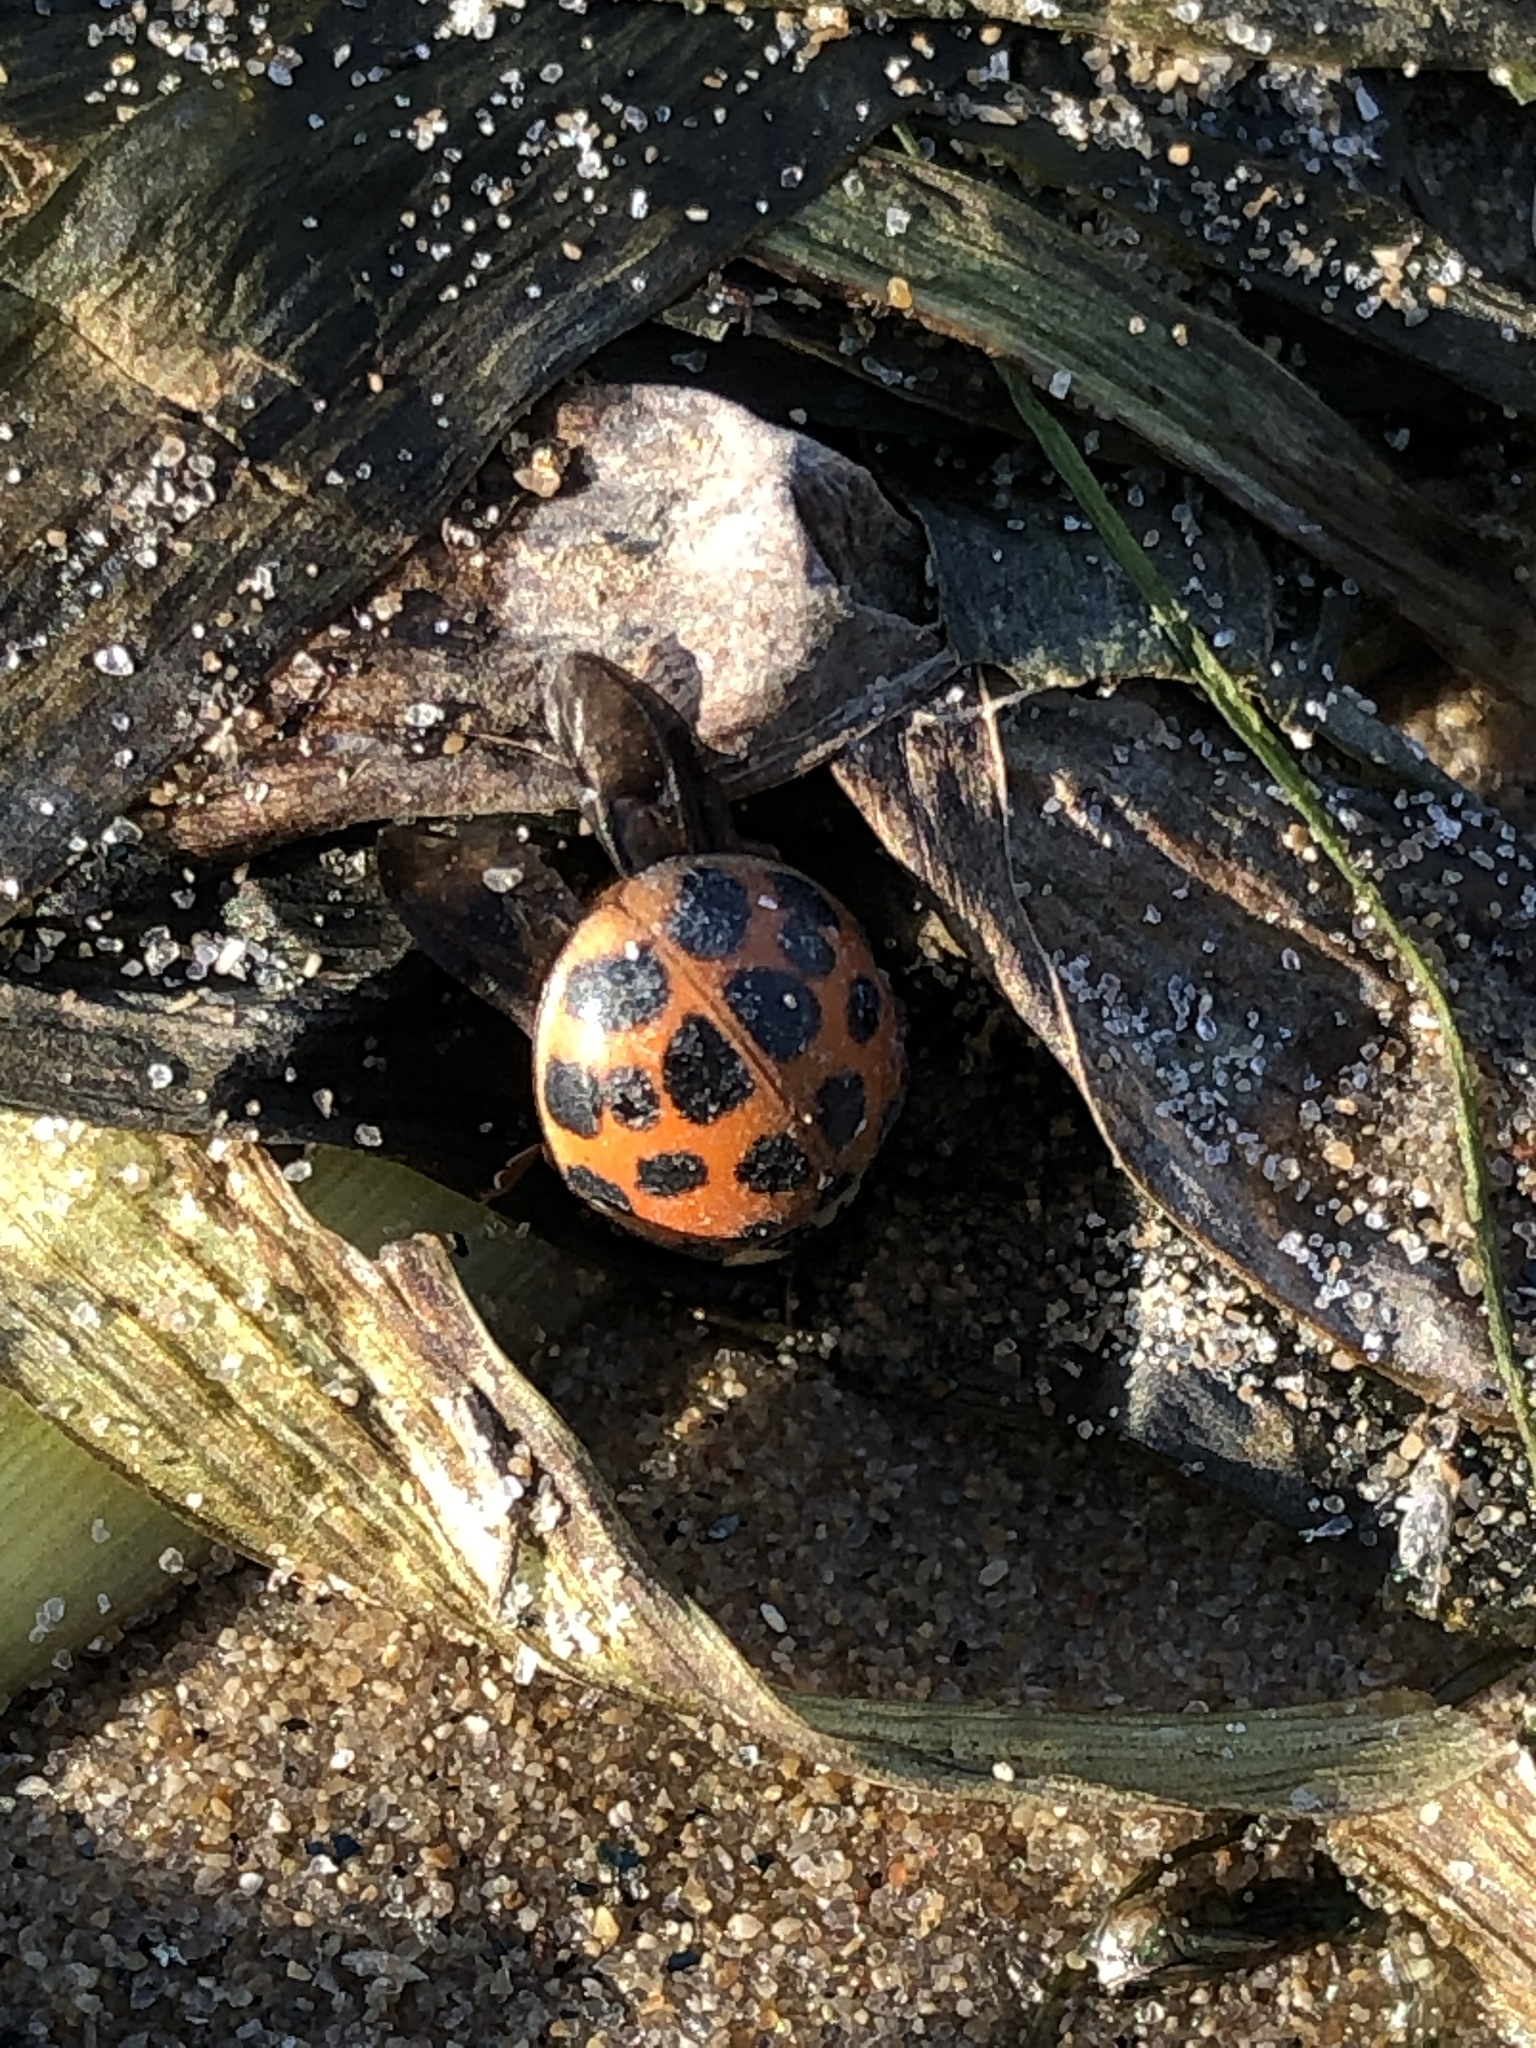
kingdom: Animalia
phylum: Arthropoda
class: Insecta
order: Coleoptera
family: Coccinellidae
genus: Harmonia
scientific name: Harmonia axyridis
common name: Harlequin ladybird
